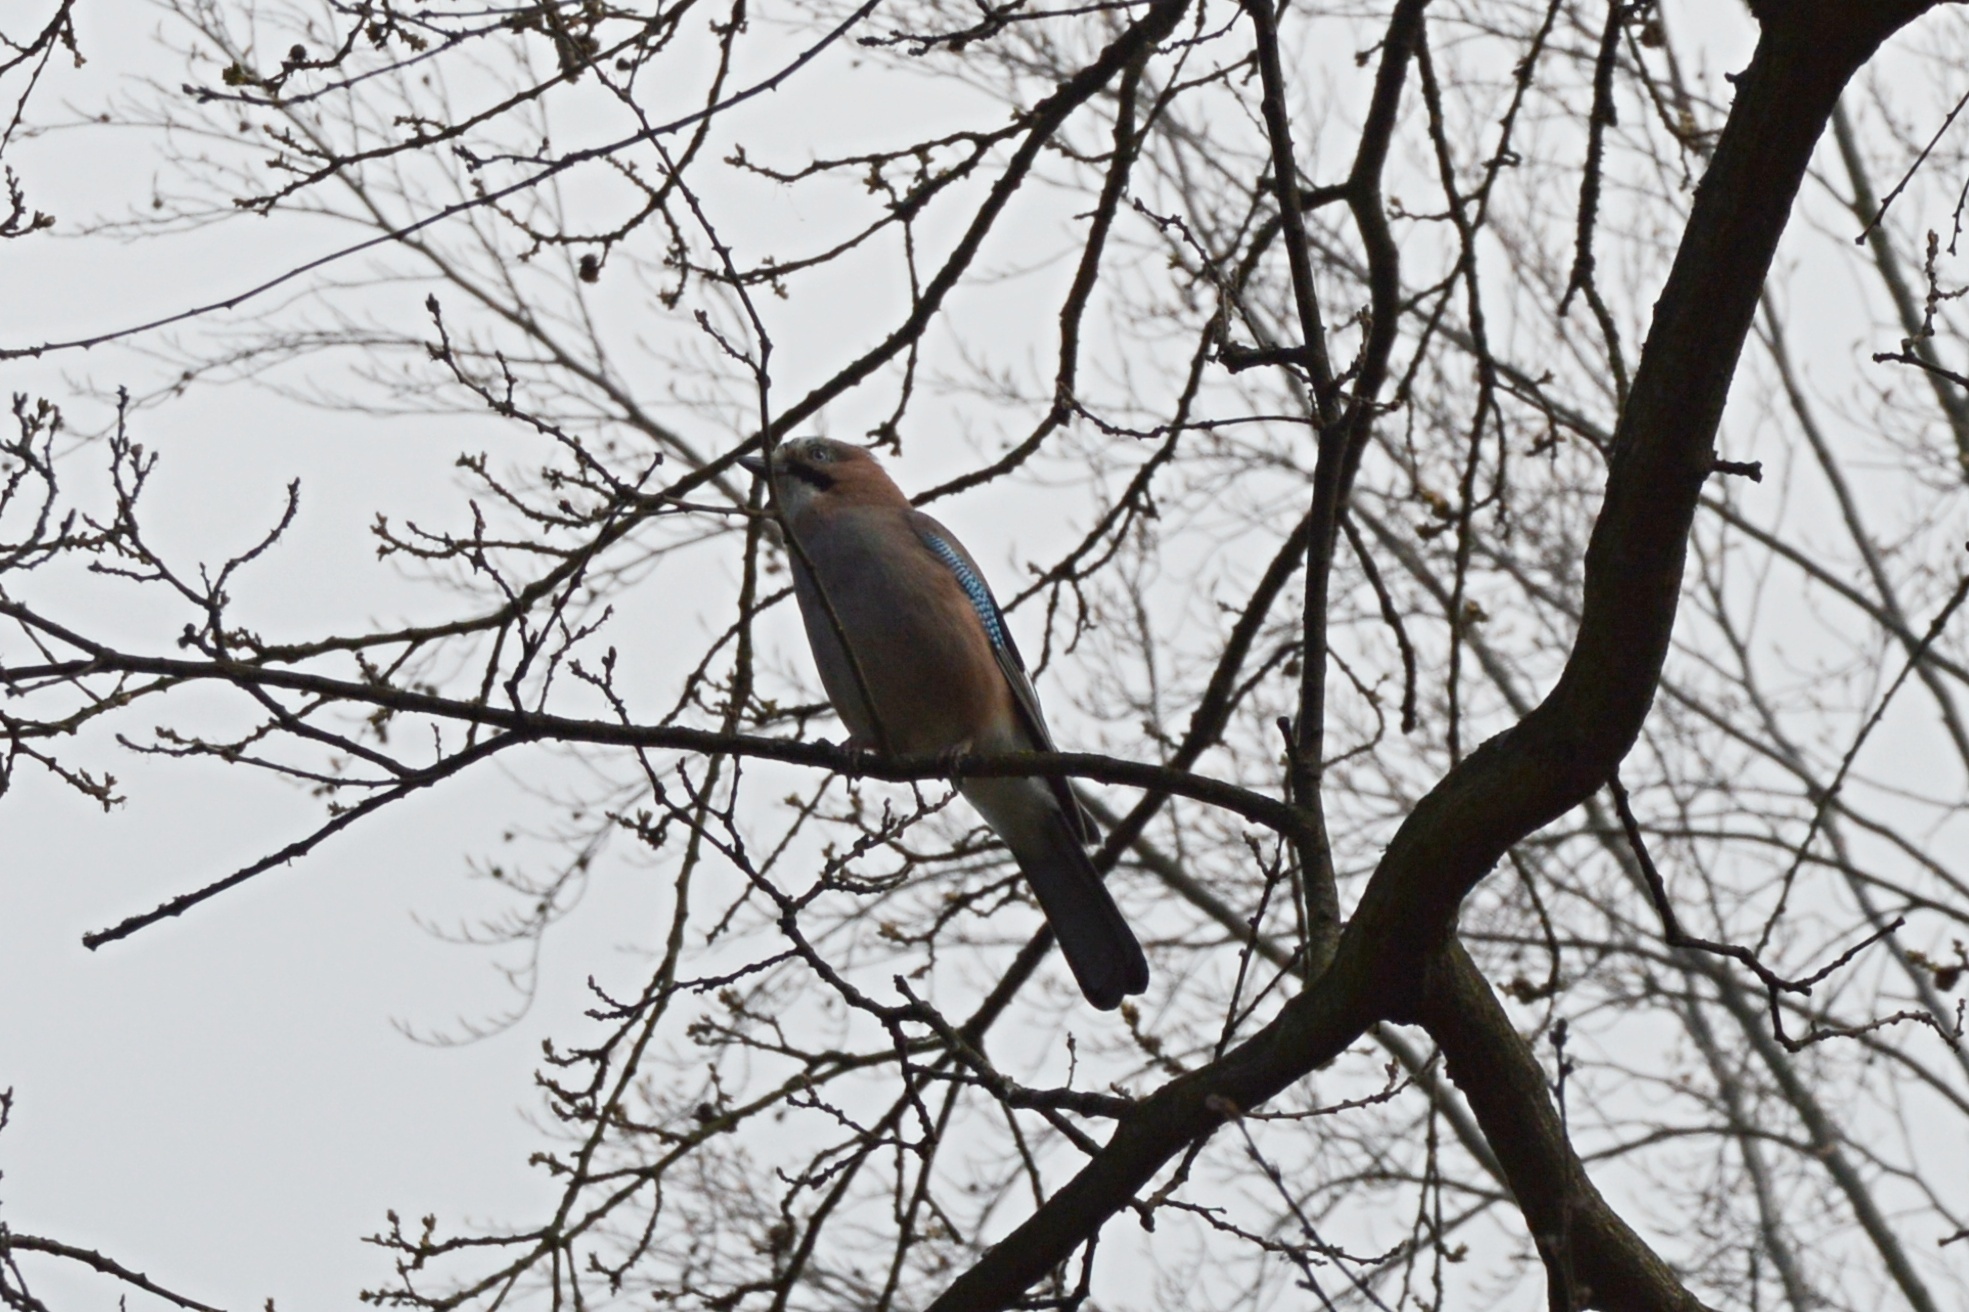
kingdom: Animalia
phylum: Chordata
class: Aves
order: Passeriformes
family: Corvidae
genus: Garrulus
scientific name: Garrulus glandarius
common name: Eurasian jay
